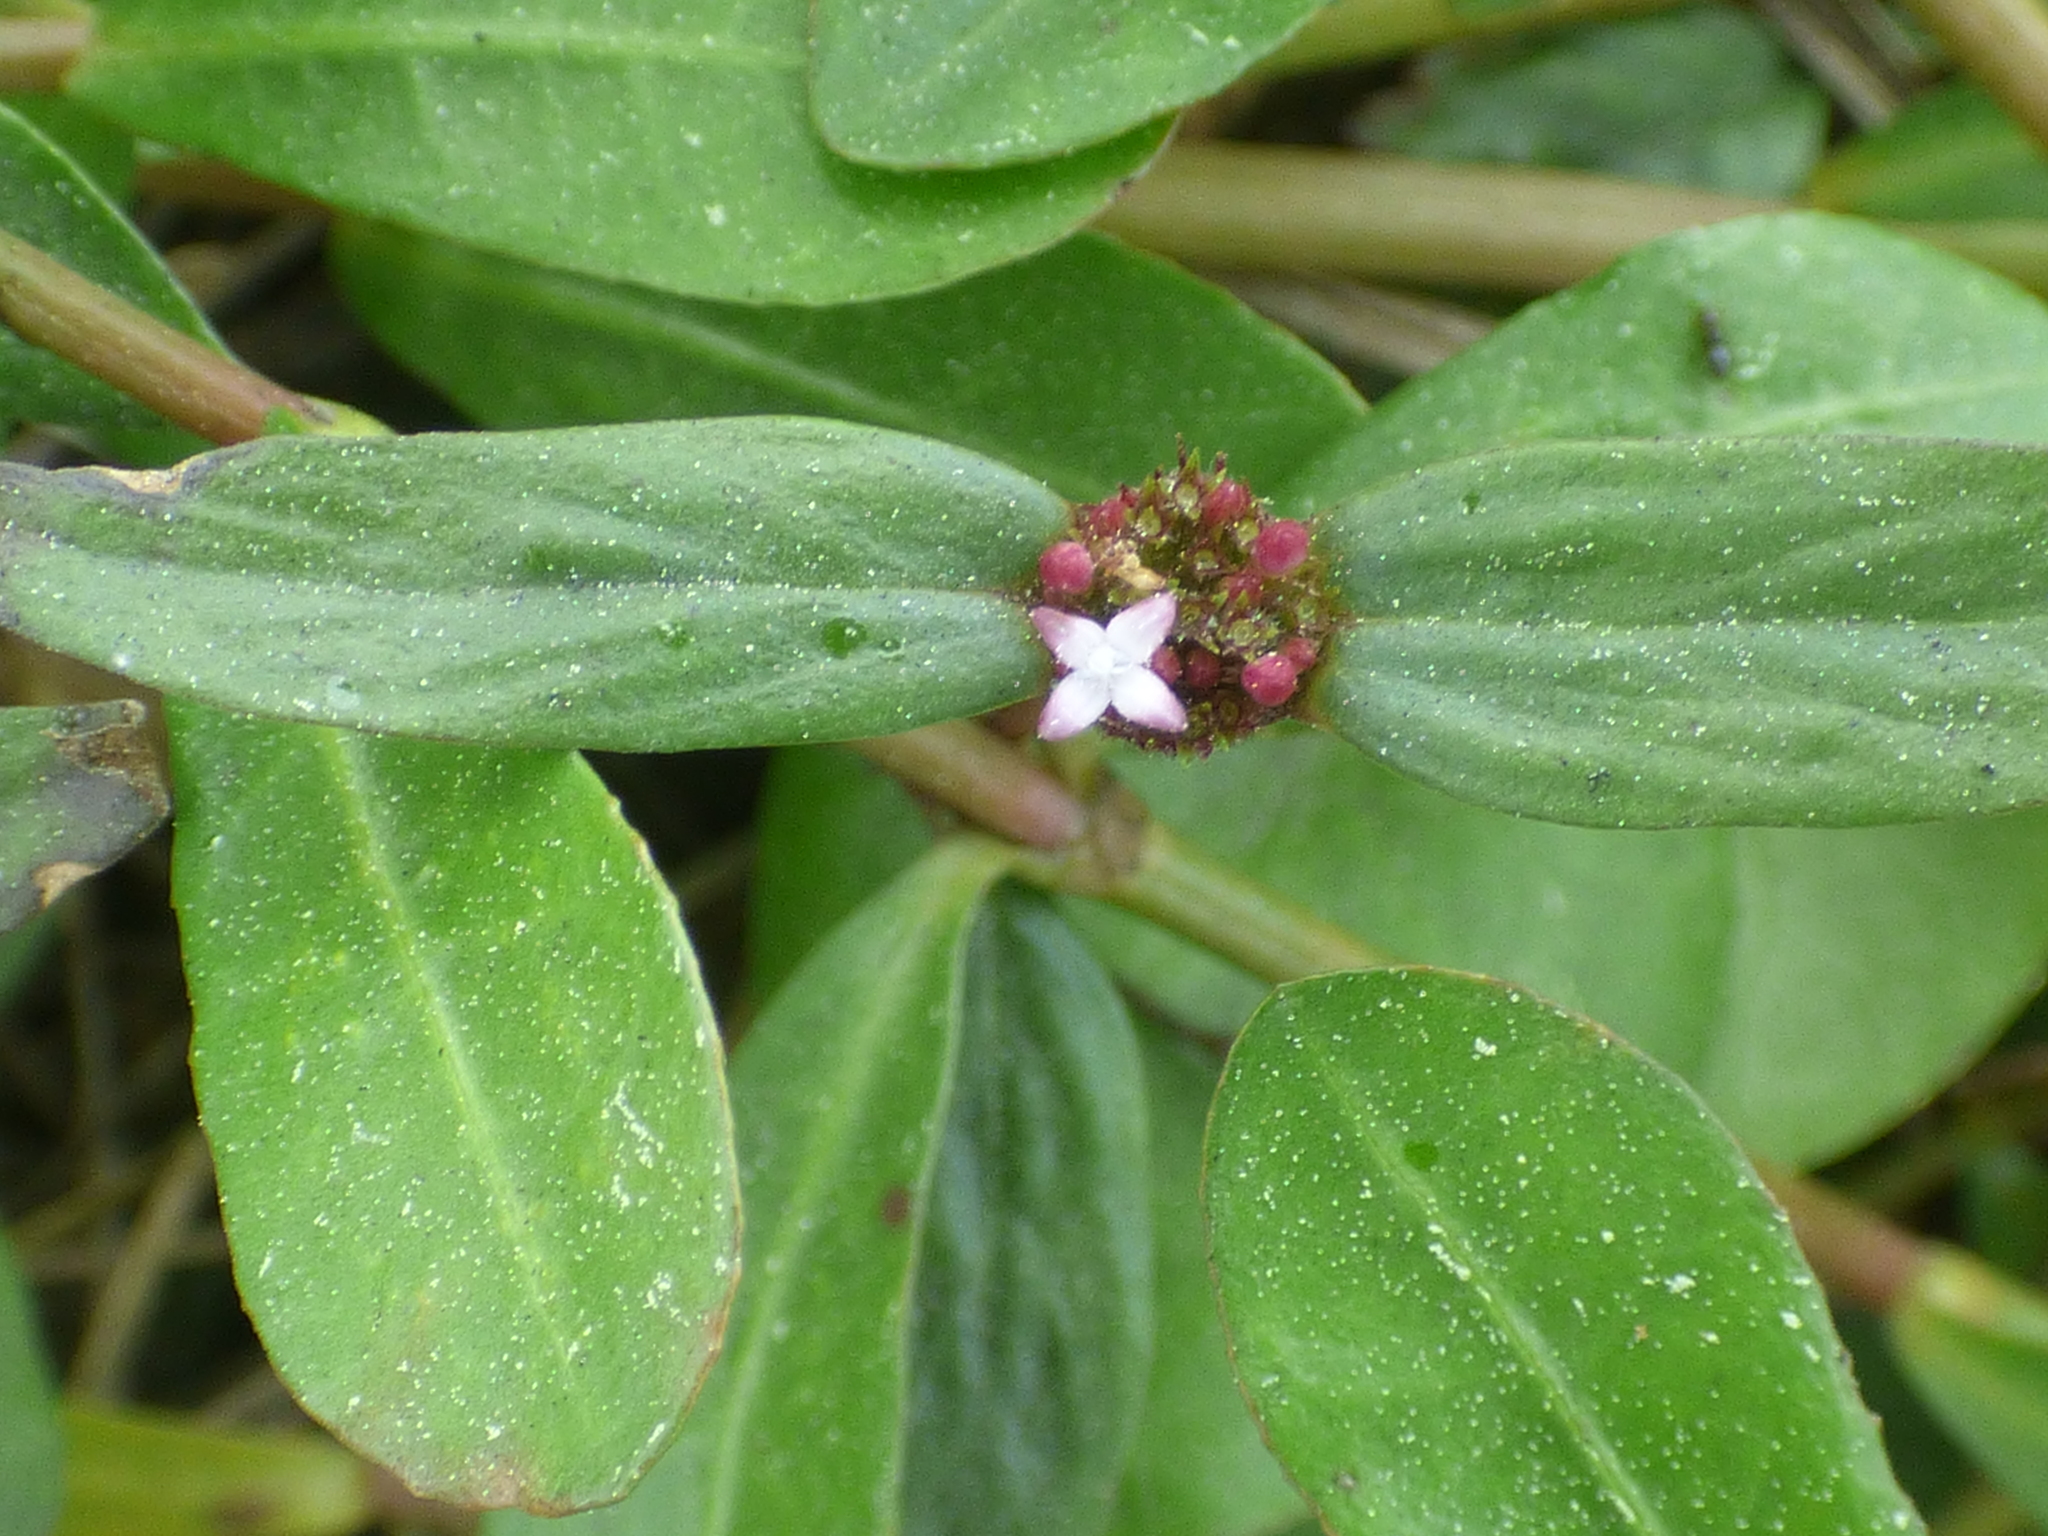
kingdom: Plantae
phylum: Tracheophyta
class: Magnoliopsida
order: Gentianales
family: Rubiaceae
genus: Spermacoce
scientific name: Spermacoce remota
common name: Woodland false buttonweed
